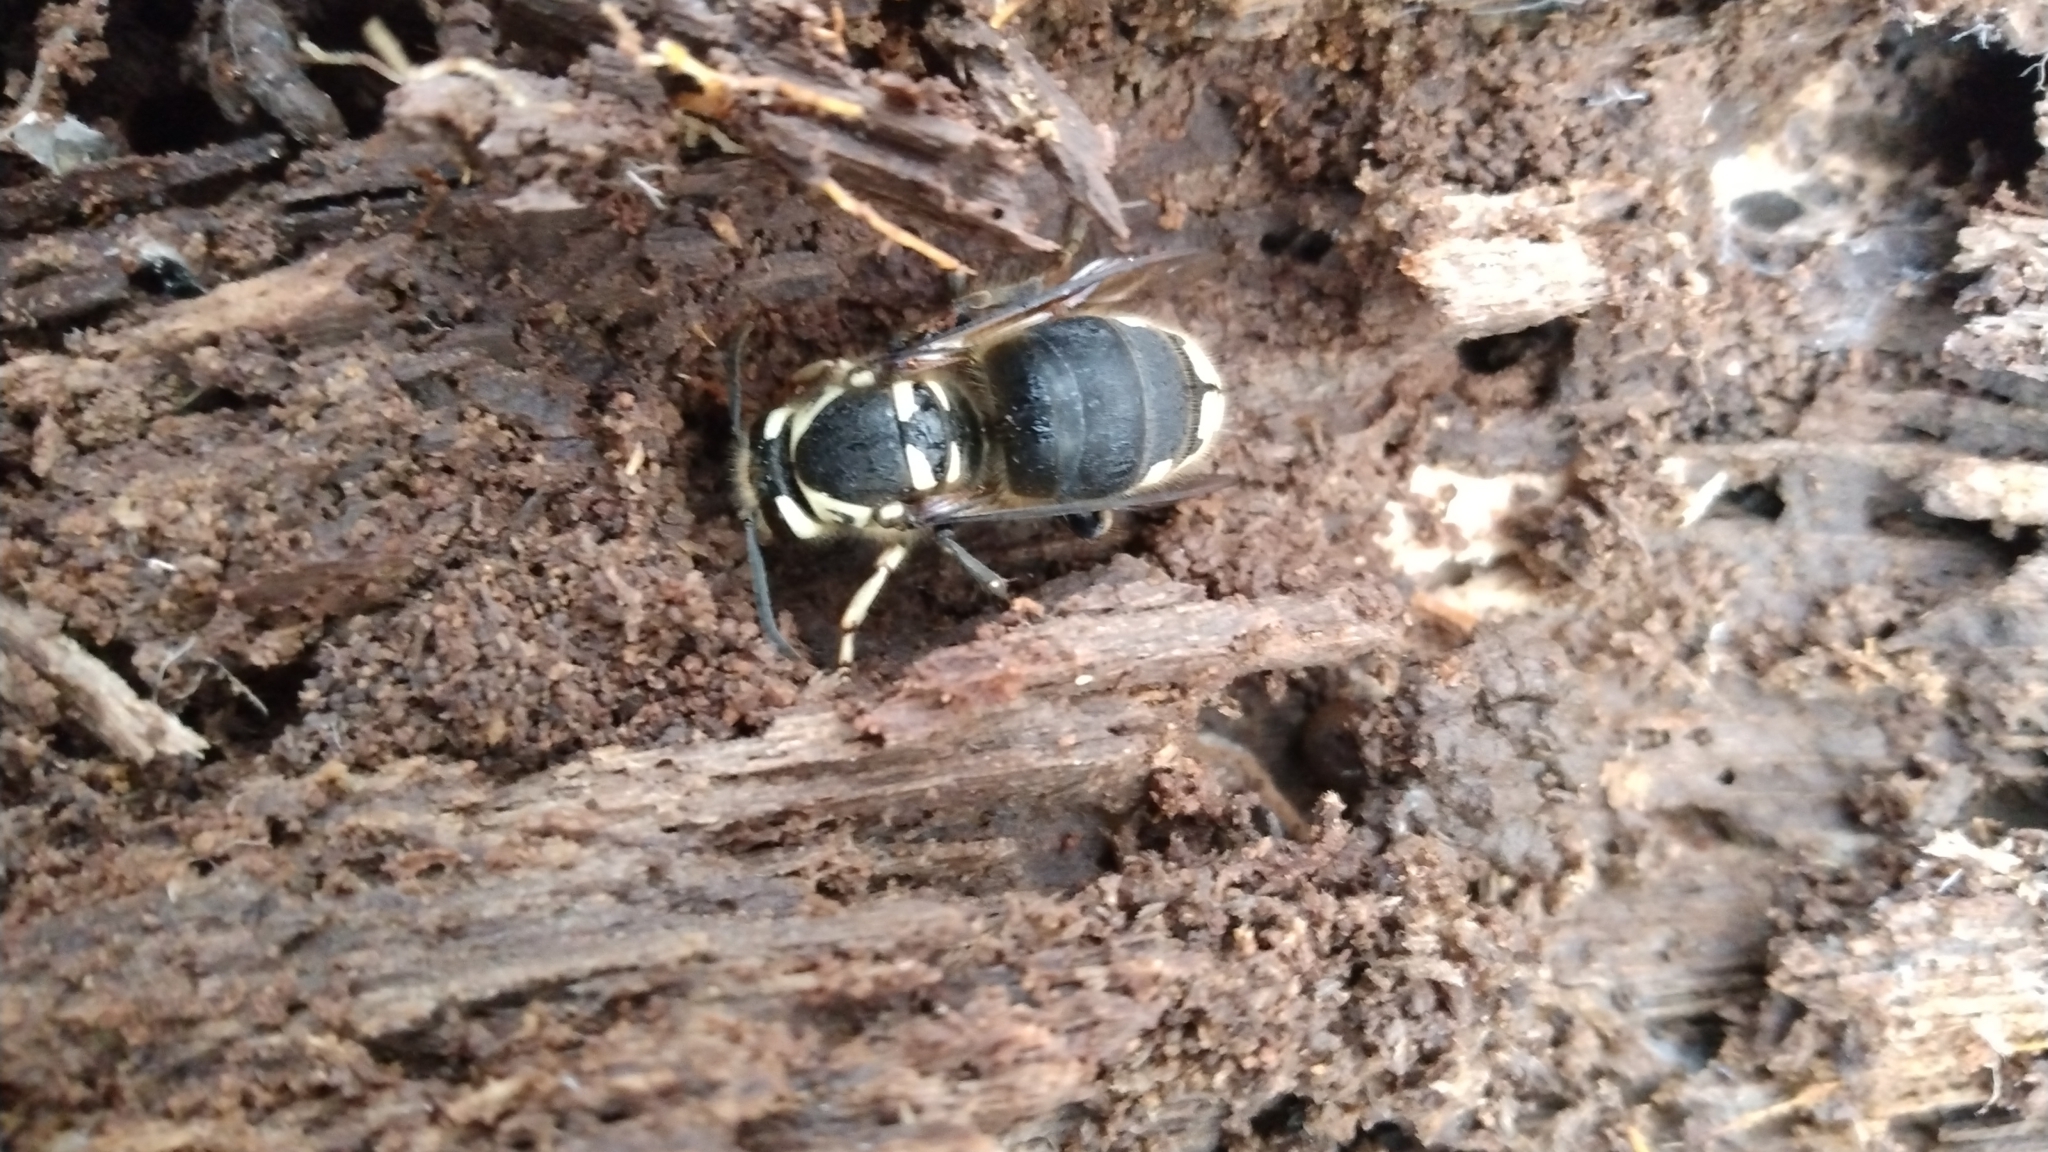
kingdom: Animalia
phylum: Arthropoda
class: Insecta
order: Hymenoptera
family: Vespidae
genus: Dolichovespula
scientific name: Dolichovespula maculata
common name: Bald-faced hornet
